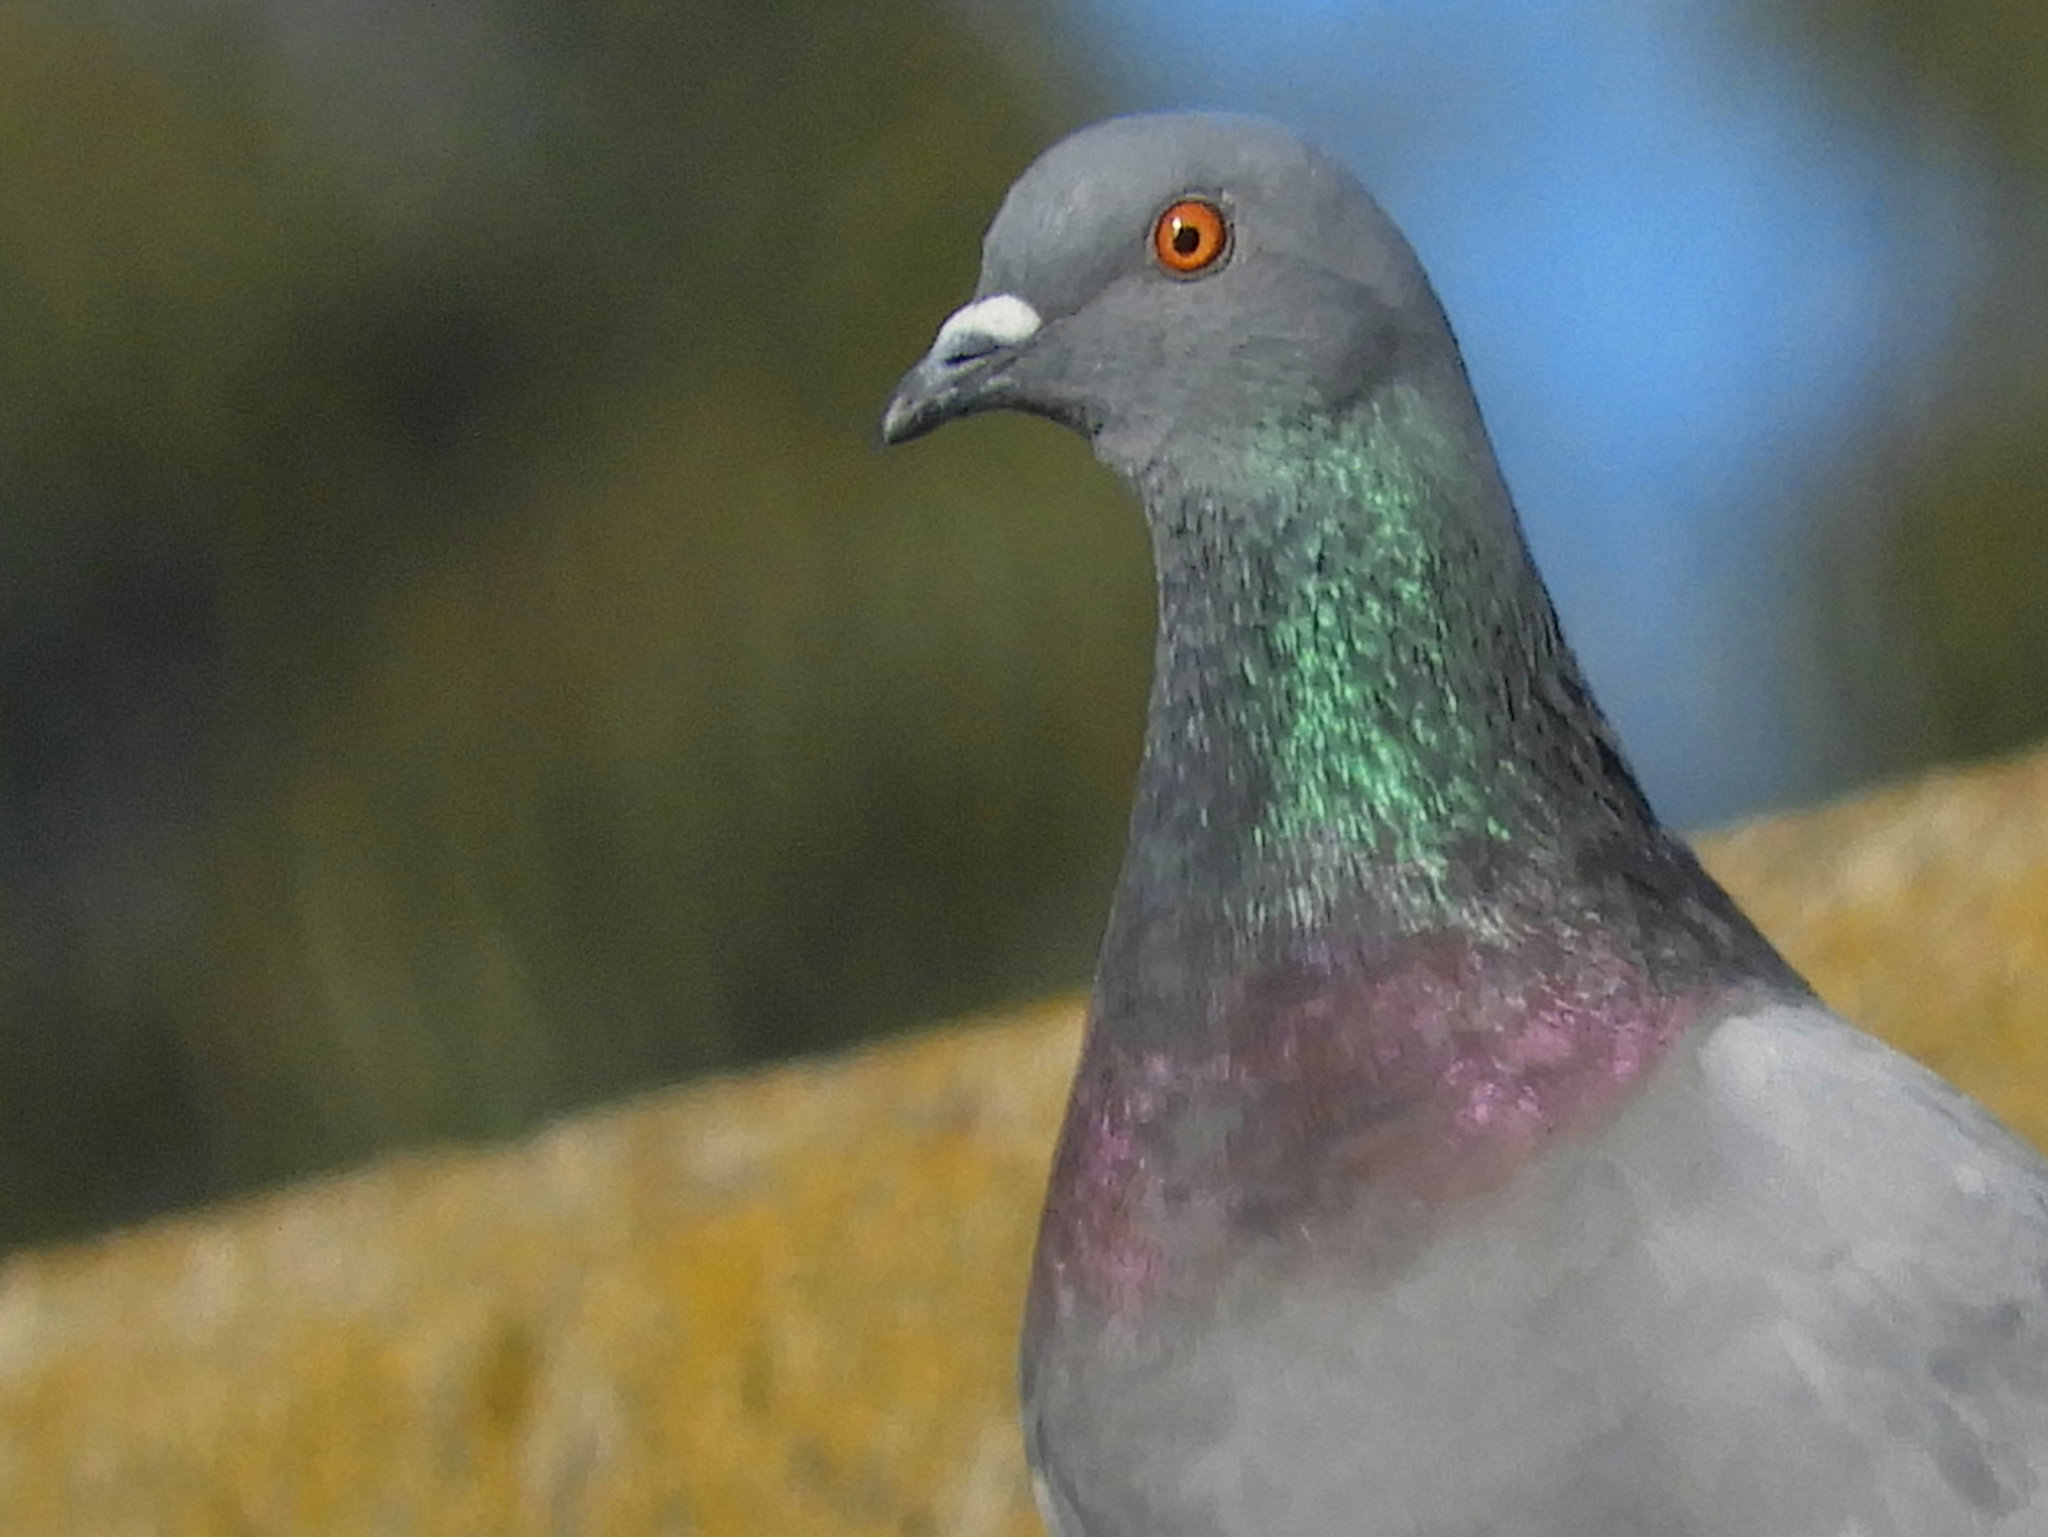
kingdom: Animalia
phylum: Chordata
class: Aves
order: Columbiformes
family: Columbidae
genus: Columba
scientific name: Columba livia
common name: Rock pigeon
